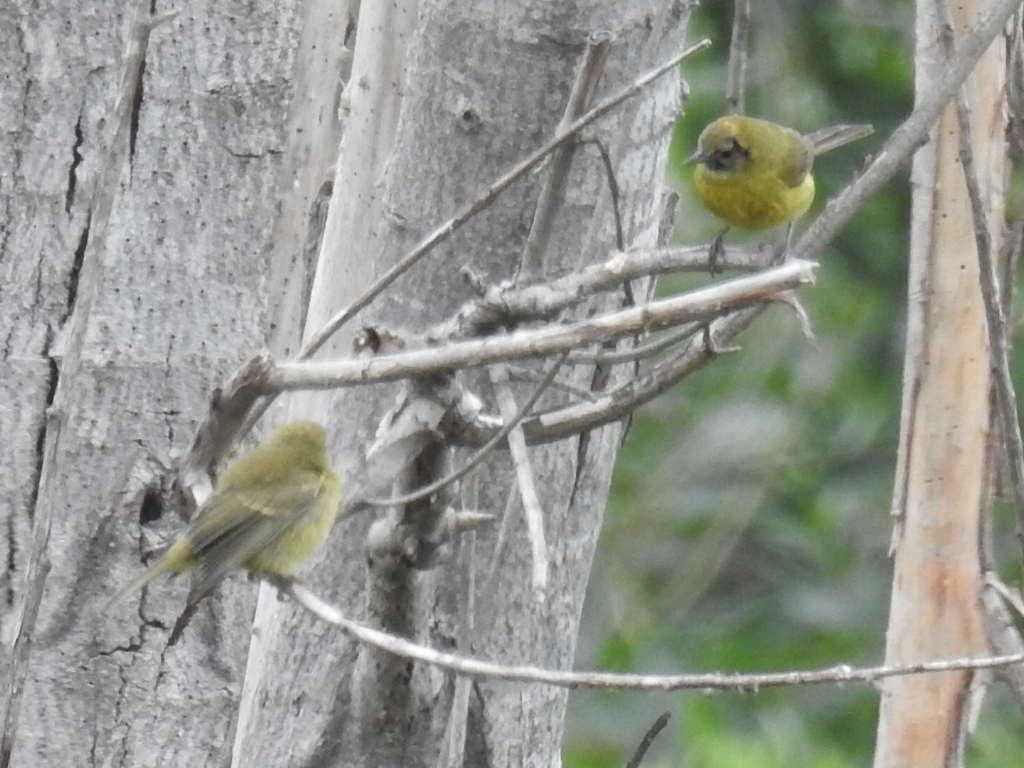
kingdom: Animalia
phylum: Chordata
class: Aves
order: Passeriformes
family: Parulidae
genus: Leiothlypis
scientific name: Leiothlypis celata
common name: Orange-crowned warbler
